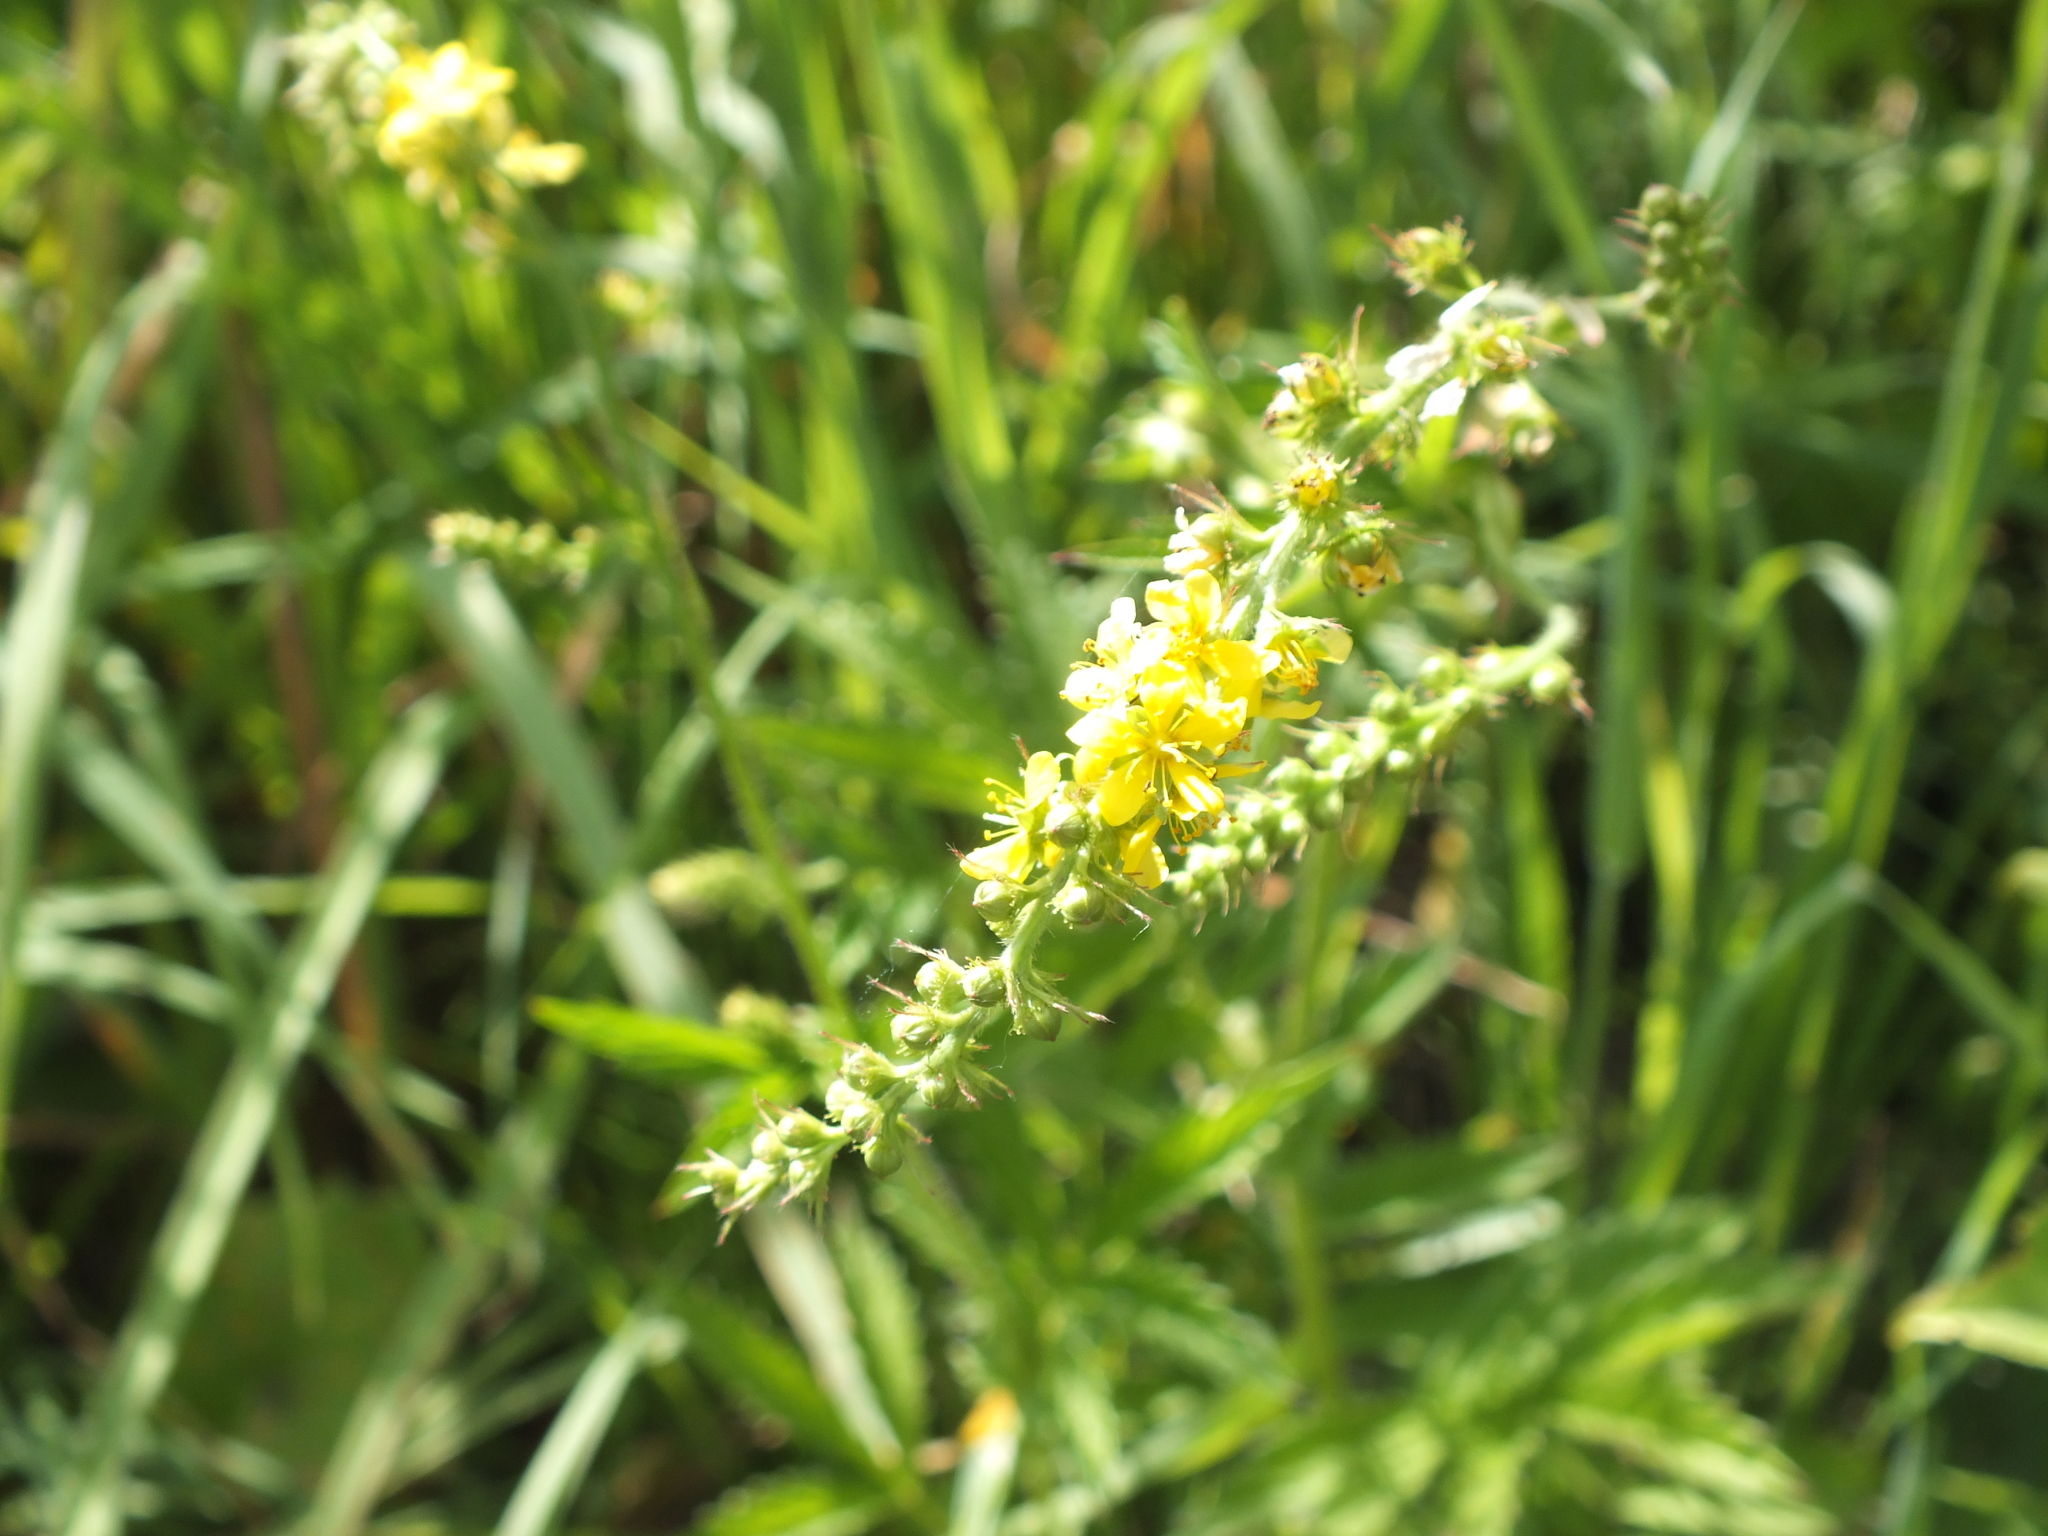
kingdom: Plantae
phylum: Tracheophyta
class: Magnoliopsida
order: Rosales
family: Rosaceae
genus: Agrimonia
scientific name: Agrimonia pilosa
